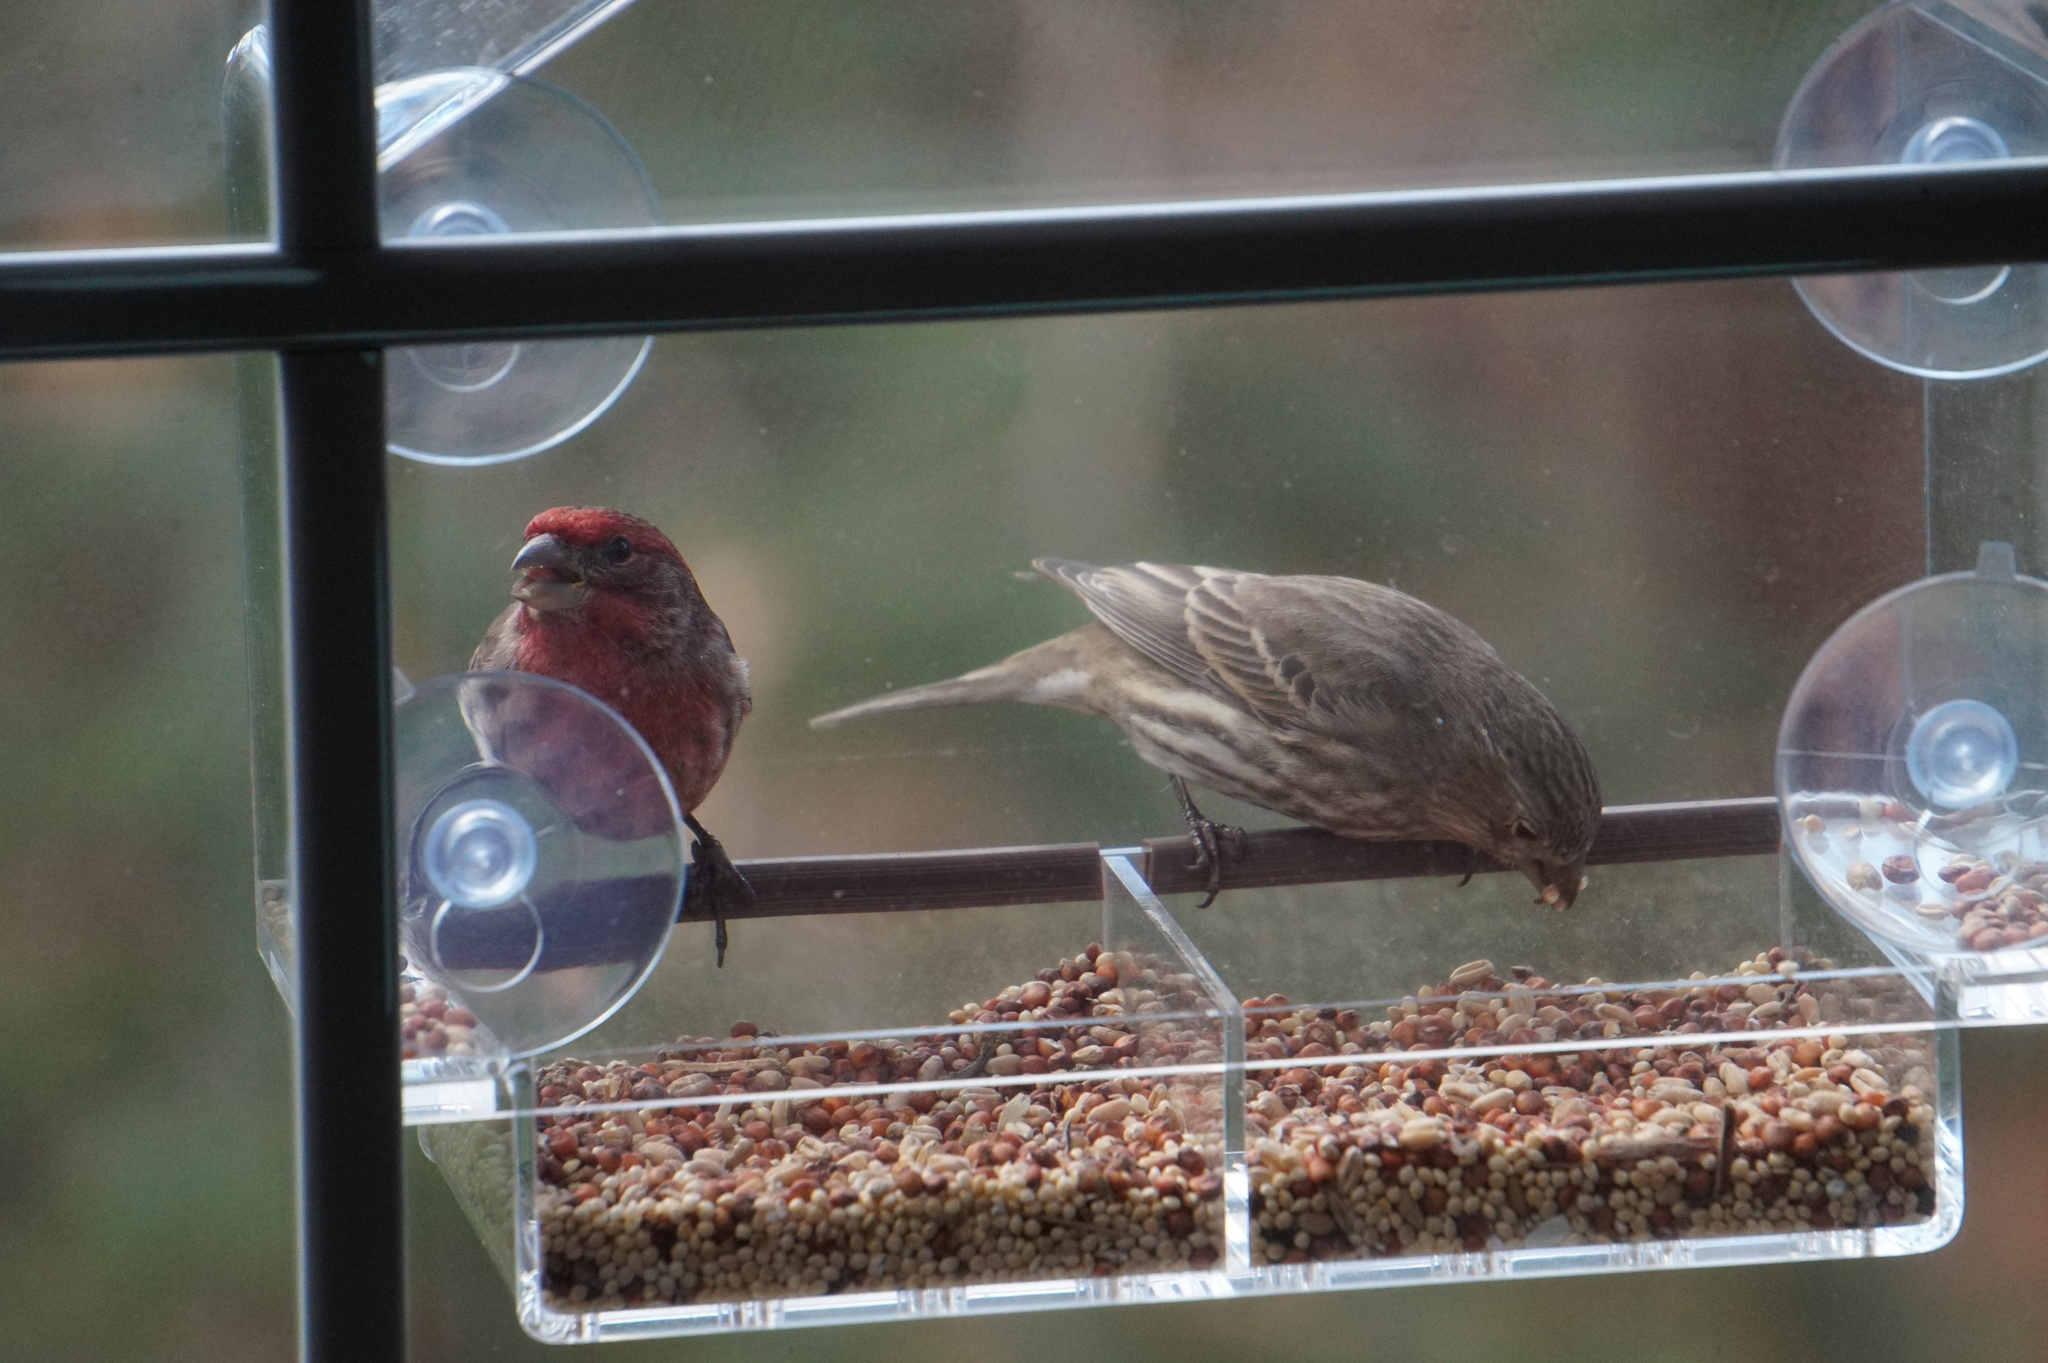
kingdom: Animalia
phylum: Chordata
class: Aves
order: Passeriformes
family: Fringillidae
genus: Haemorhous
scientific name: Haemorhous mexicanus
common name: House finch
